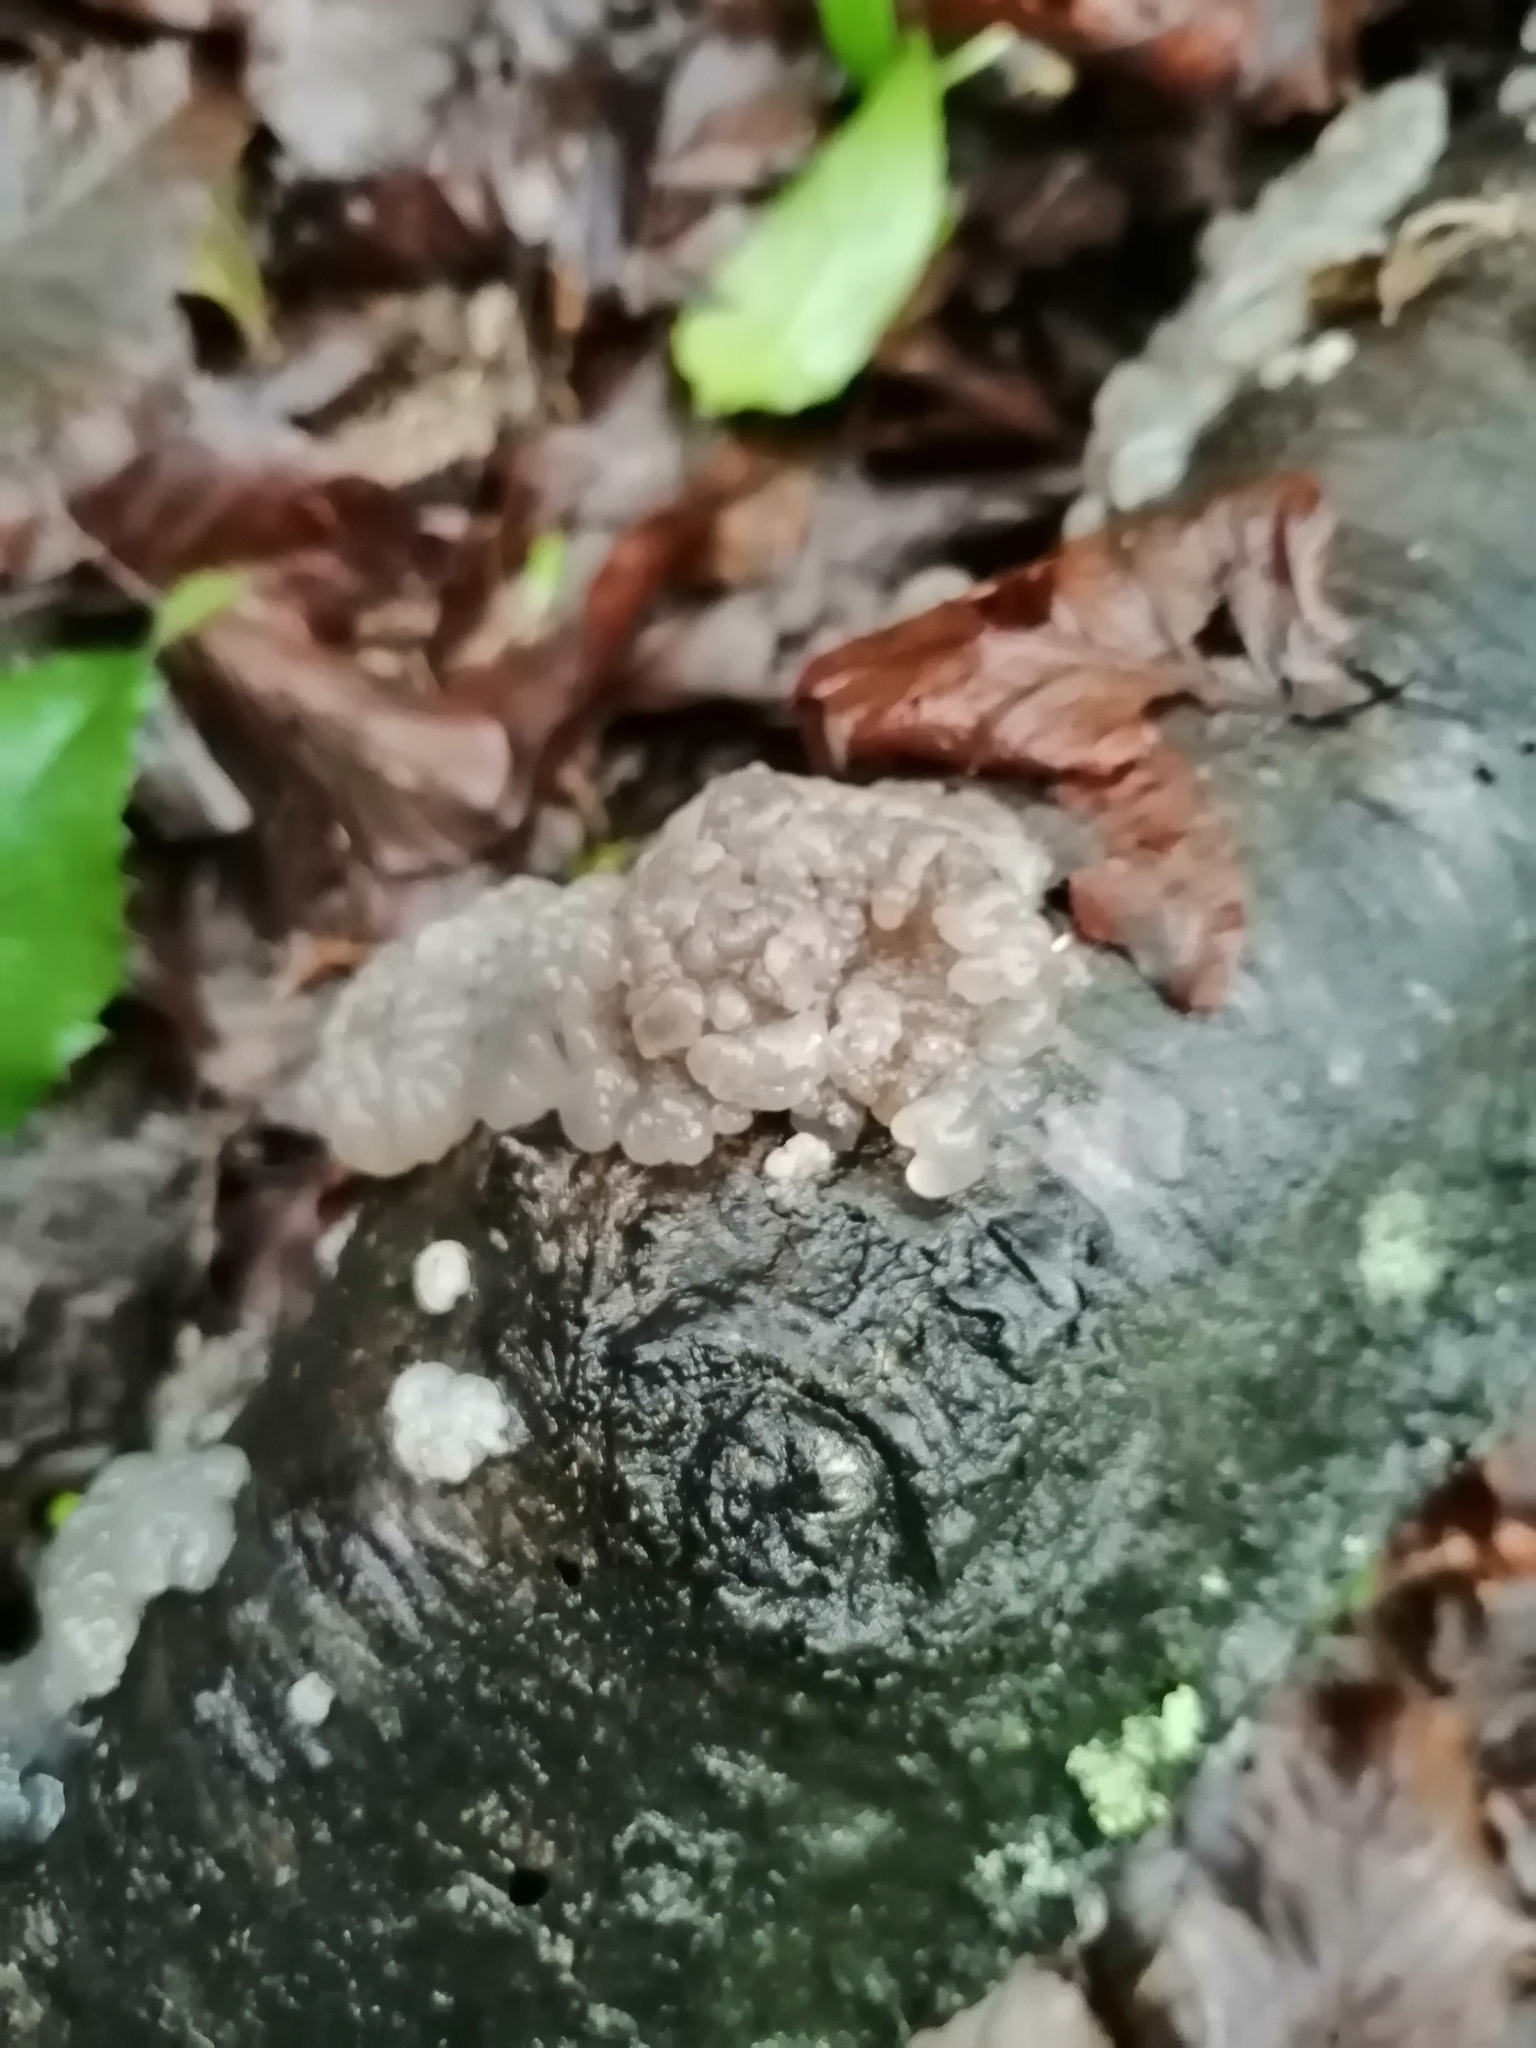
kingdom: Fungi
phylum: Basidiomycota
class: Agaricomycetes
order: Auriculariales
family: Hyaloriaceae
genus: Myxarium
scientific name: Myxarium nucleatum
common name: Crystal brain fungus
